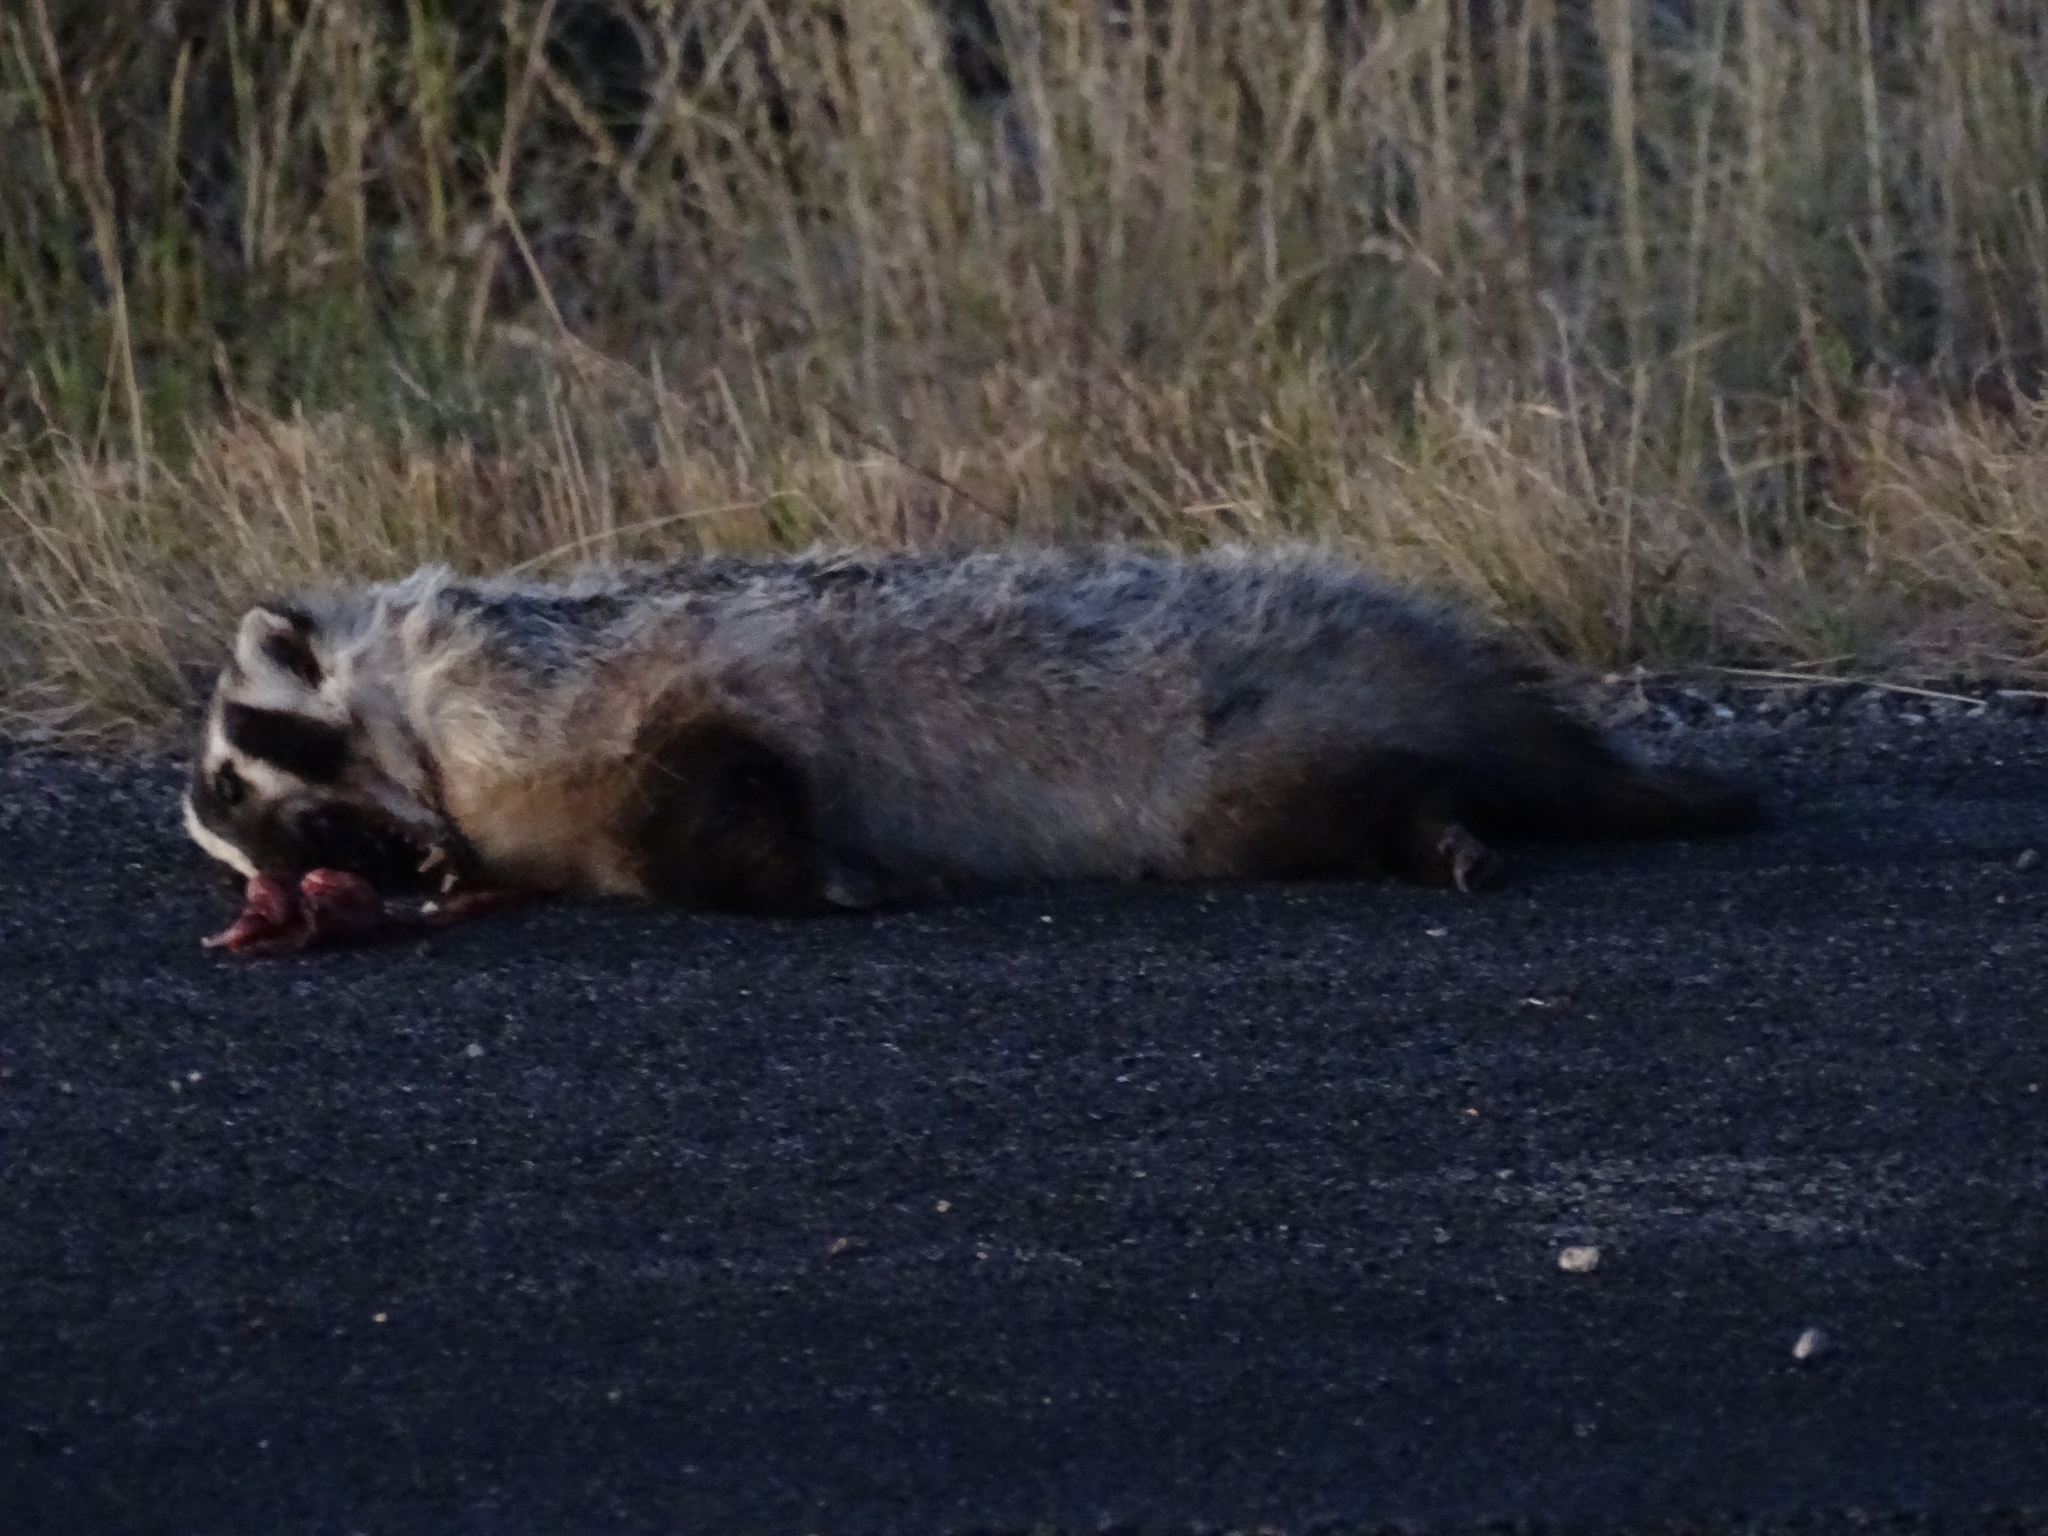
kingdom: Animalia
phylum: Chordata
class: Mammalia
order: Carnivora
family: Mustelidae
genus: Taxidea
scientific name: Taxidea taxus
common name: American badger
